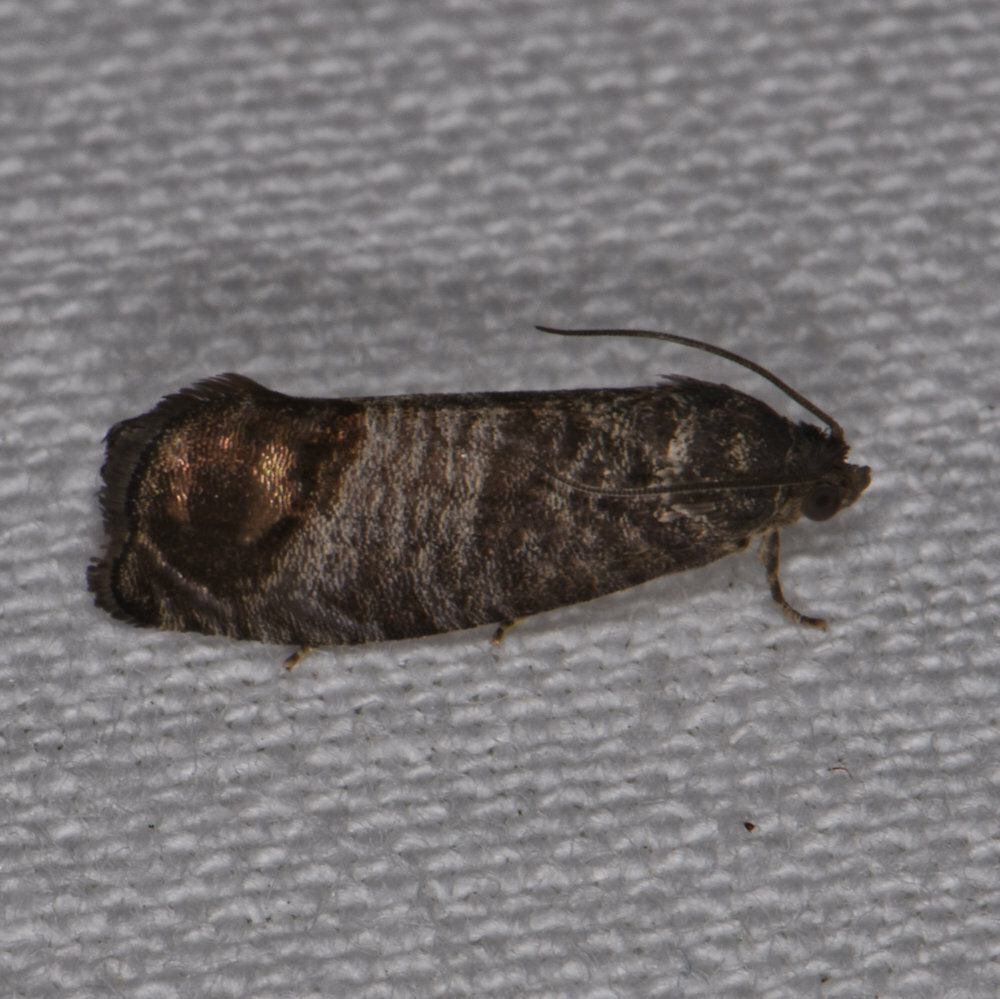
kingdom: Animalia
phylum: Arthropoda
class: Insecta
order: Lepidoptera
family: Tortricidae
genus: Cydia
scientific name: Cydia pomonella
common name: Codling moth
